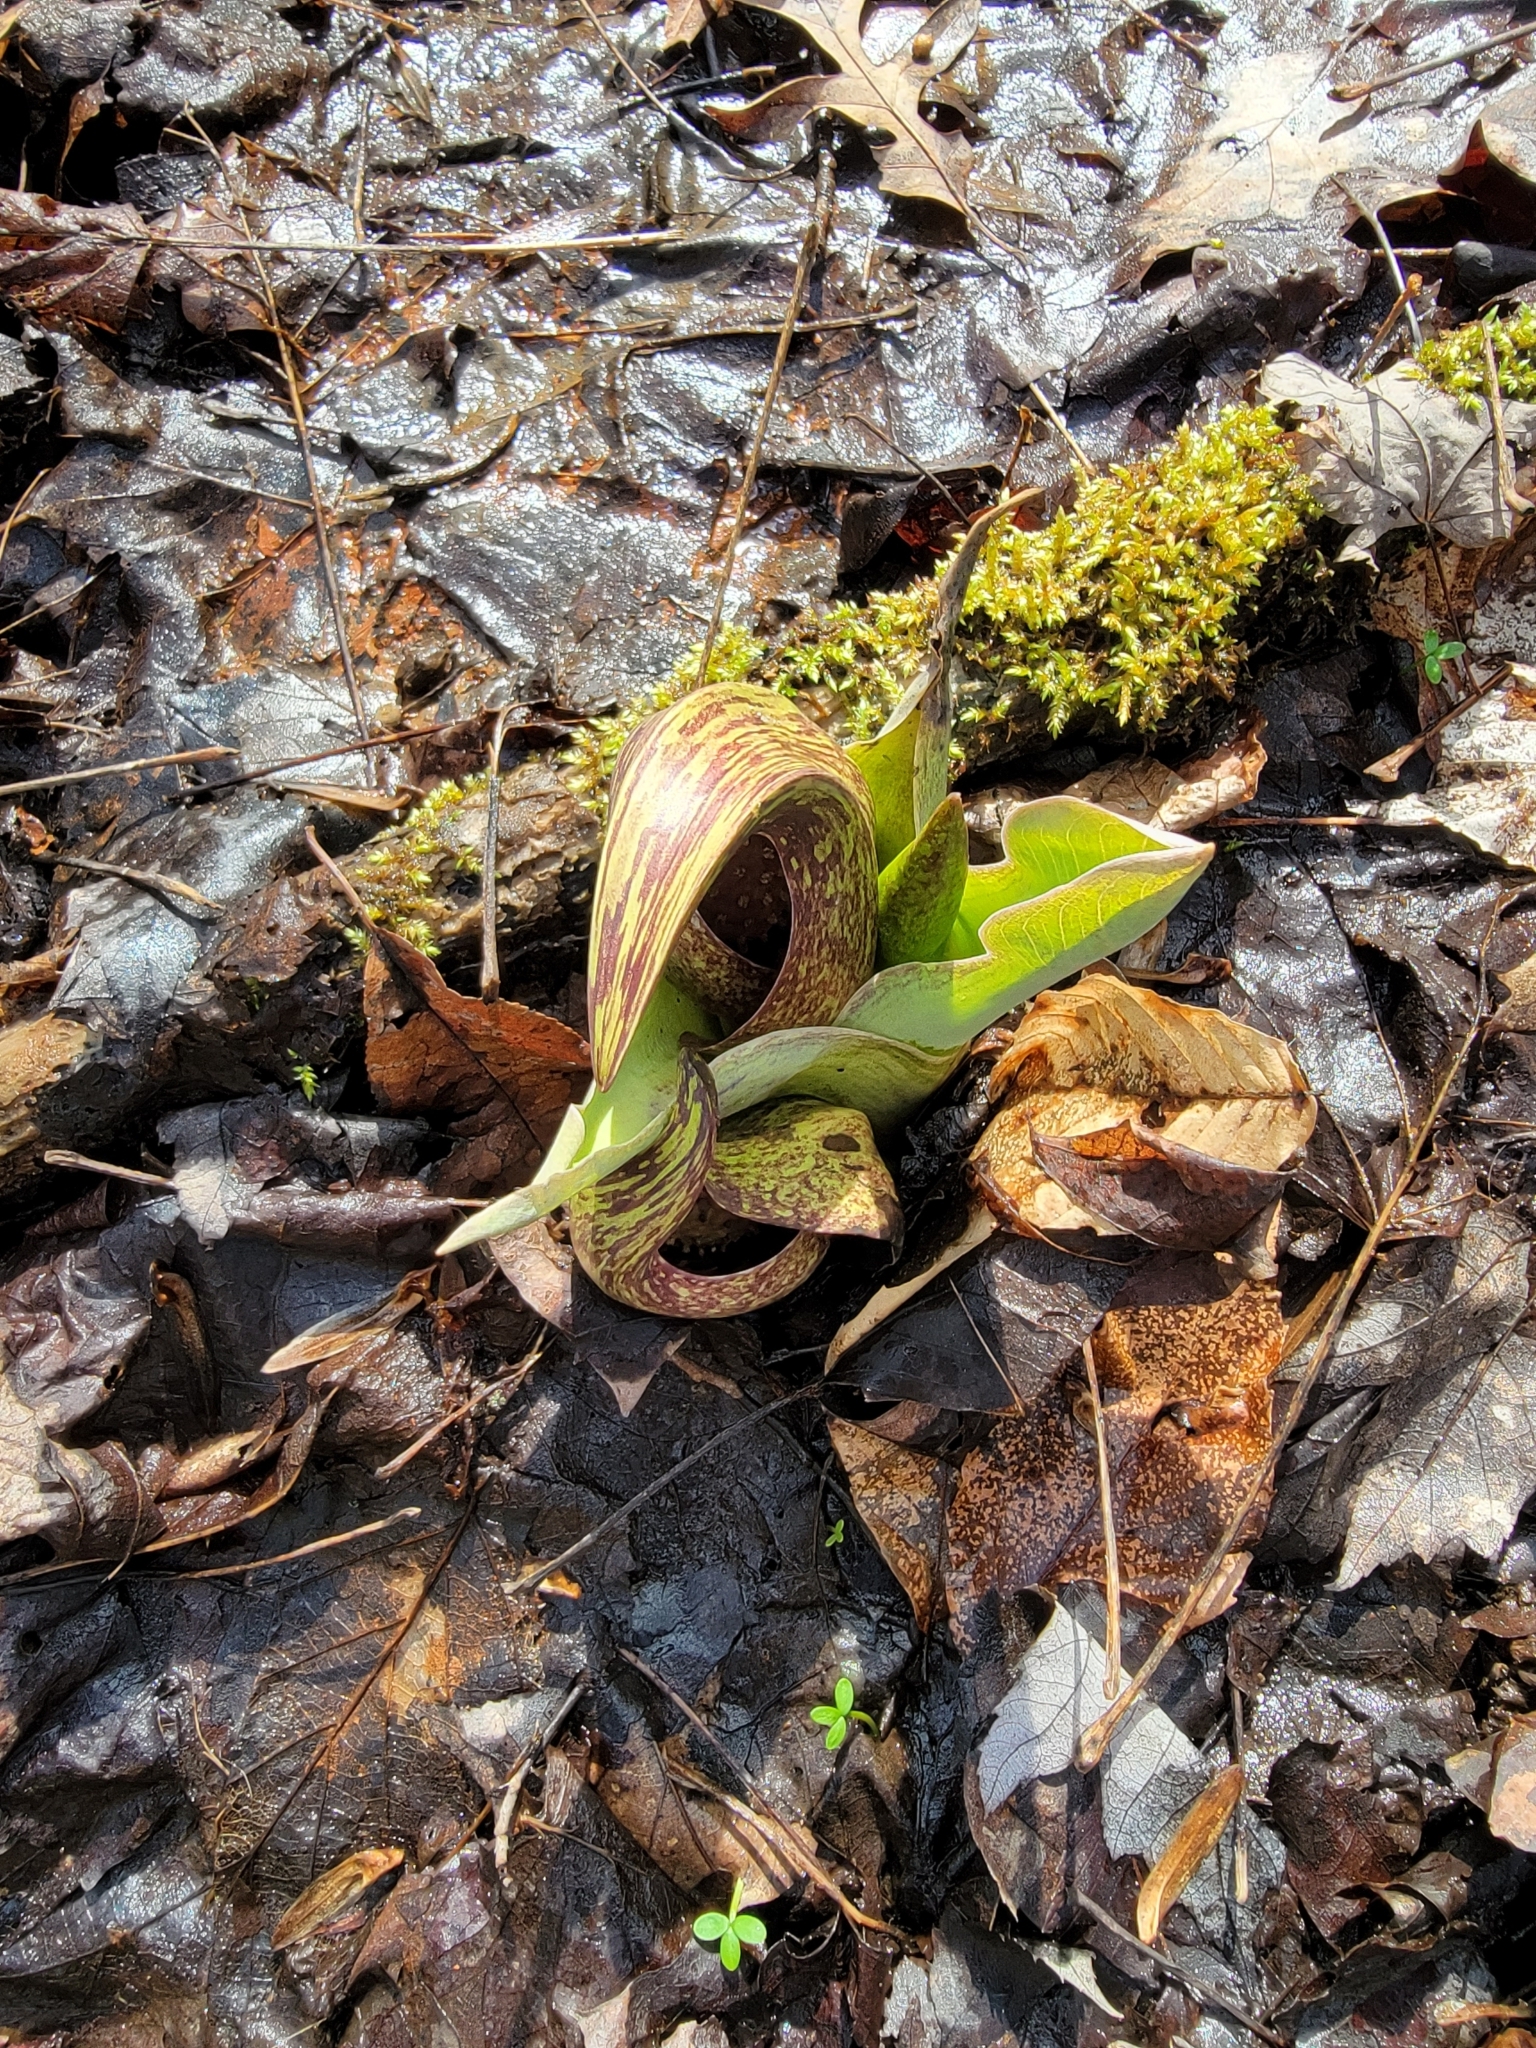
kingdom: Plantae
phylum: Tracheophyta
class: Liliopsida
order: Alismatales
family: Araceae
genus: Symplocarpus
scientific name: Symplocarpus foetidus
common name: Eastern skunk cabbage
